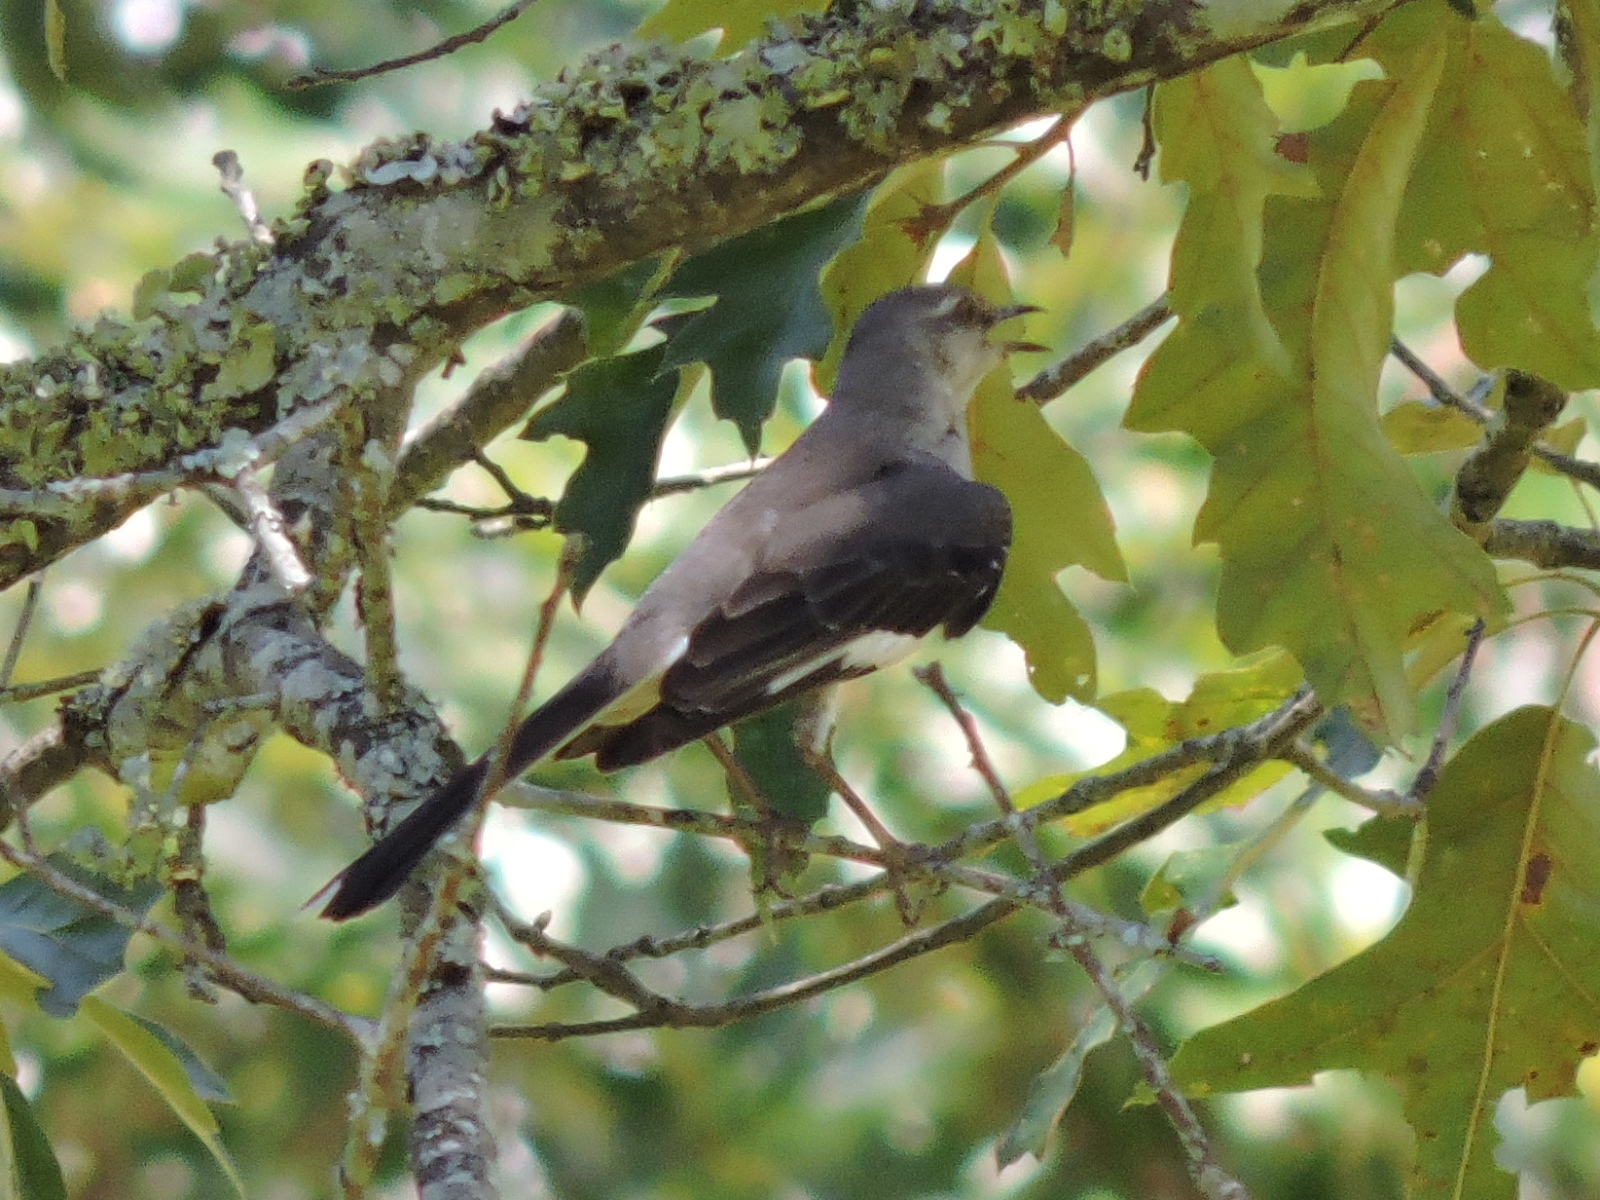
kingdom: Animalia
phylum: Chordata
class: Aves
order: Passeriformes
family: Mimidae
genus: Mimus
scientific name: Mimus polyglottos
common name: Northern mockingbird
